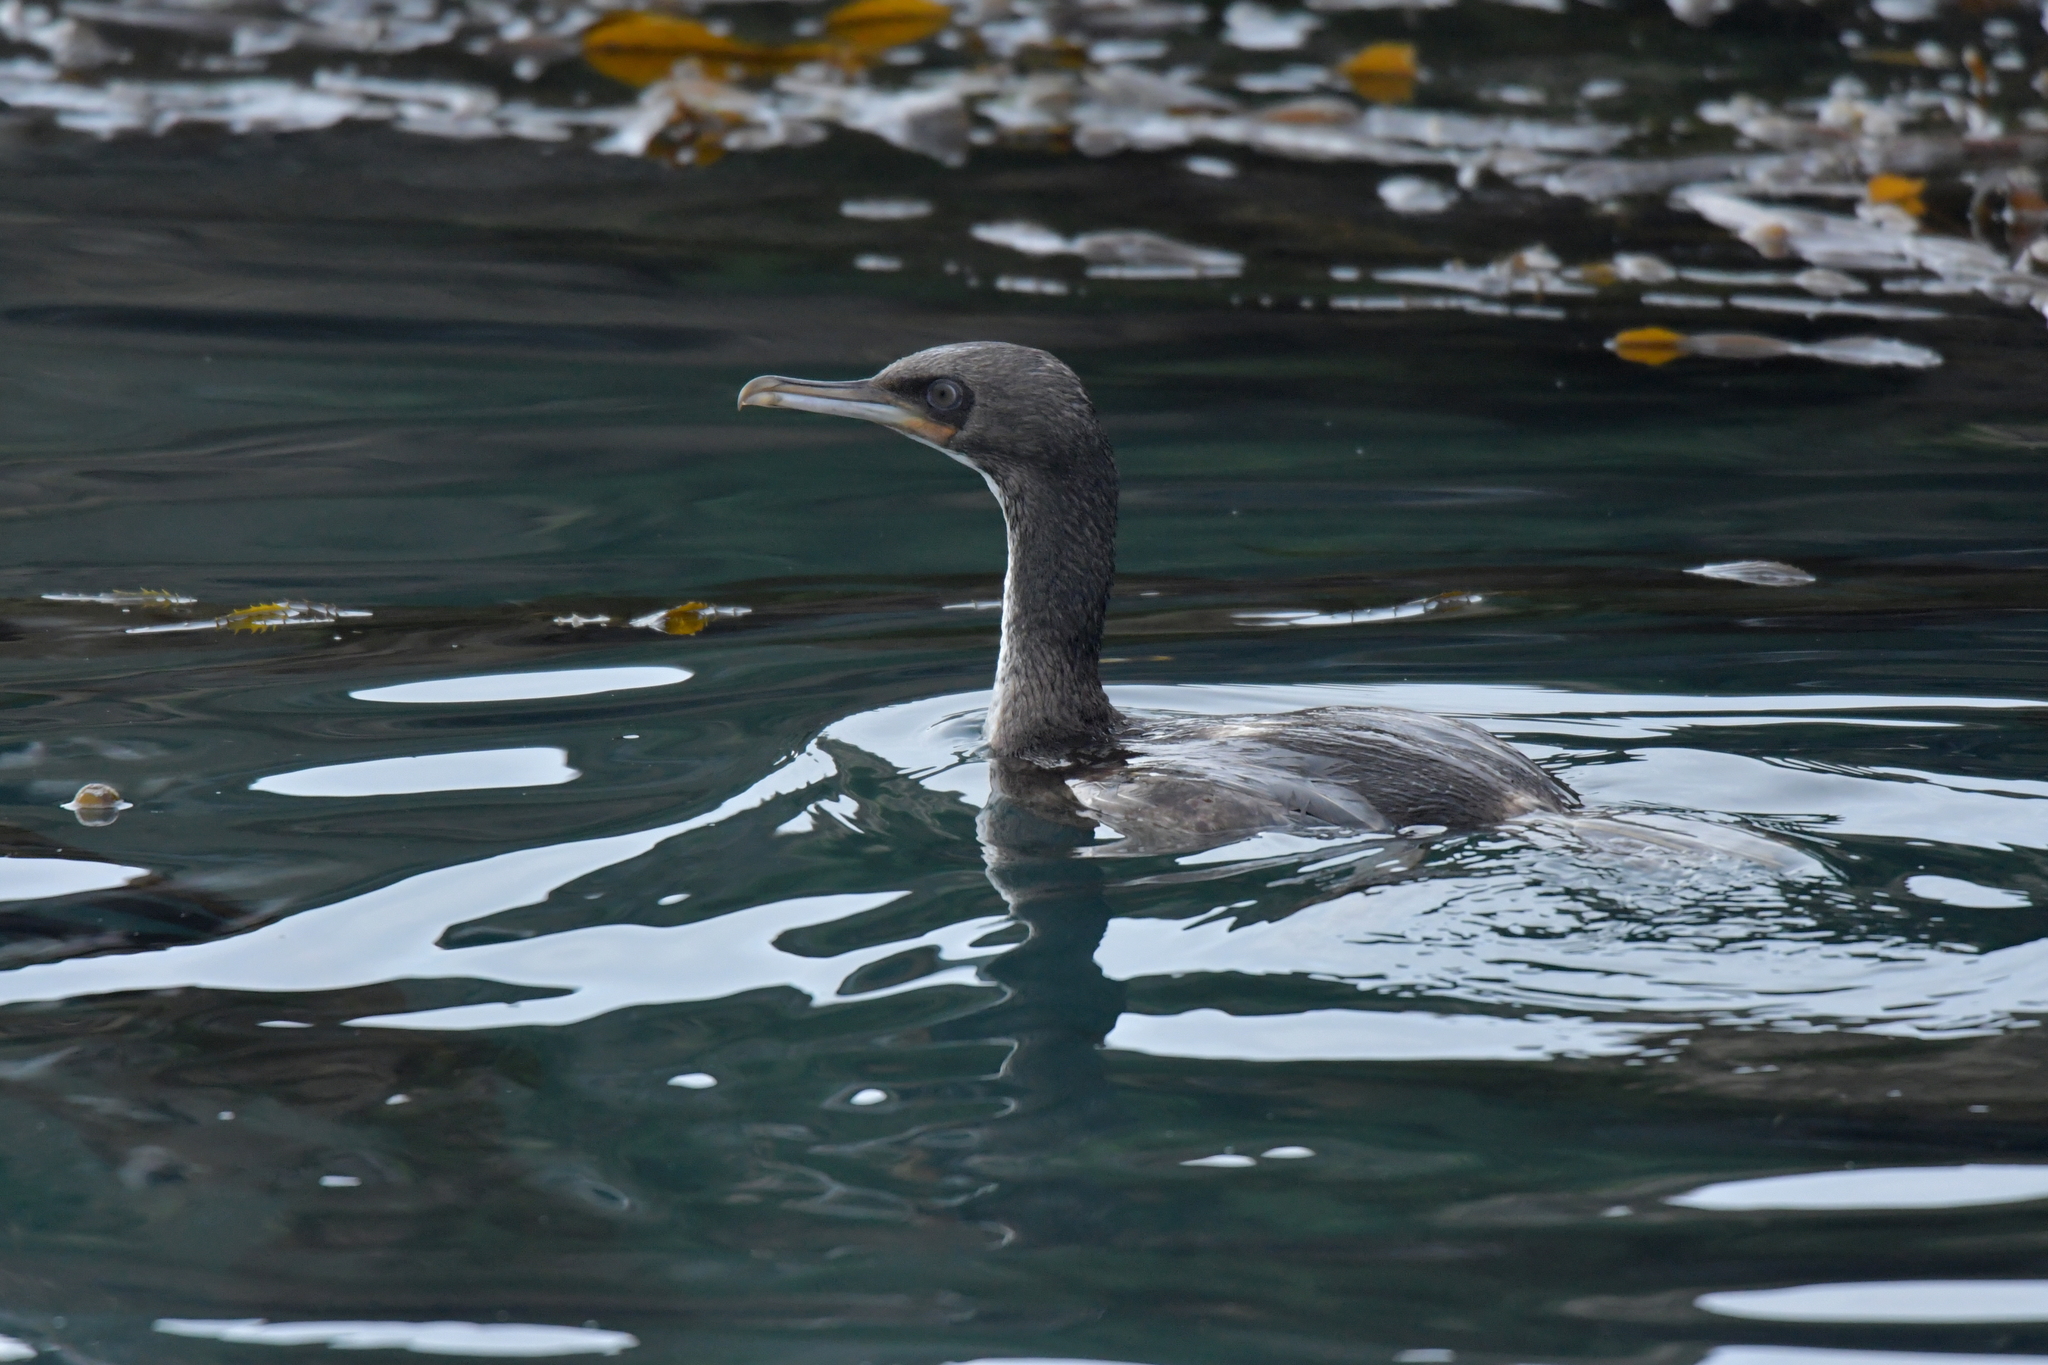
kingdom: Animalia
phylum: Chordata
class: Aves
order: Suliformes
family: Phalacrocoracidae
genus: Leucocarbo
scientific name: Leucocarbo chalconotus
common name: Stewart shag
